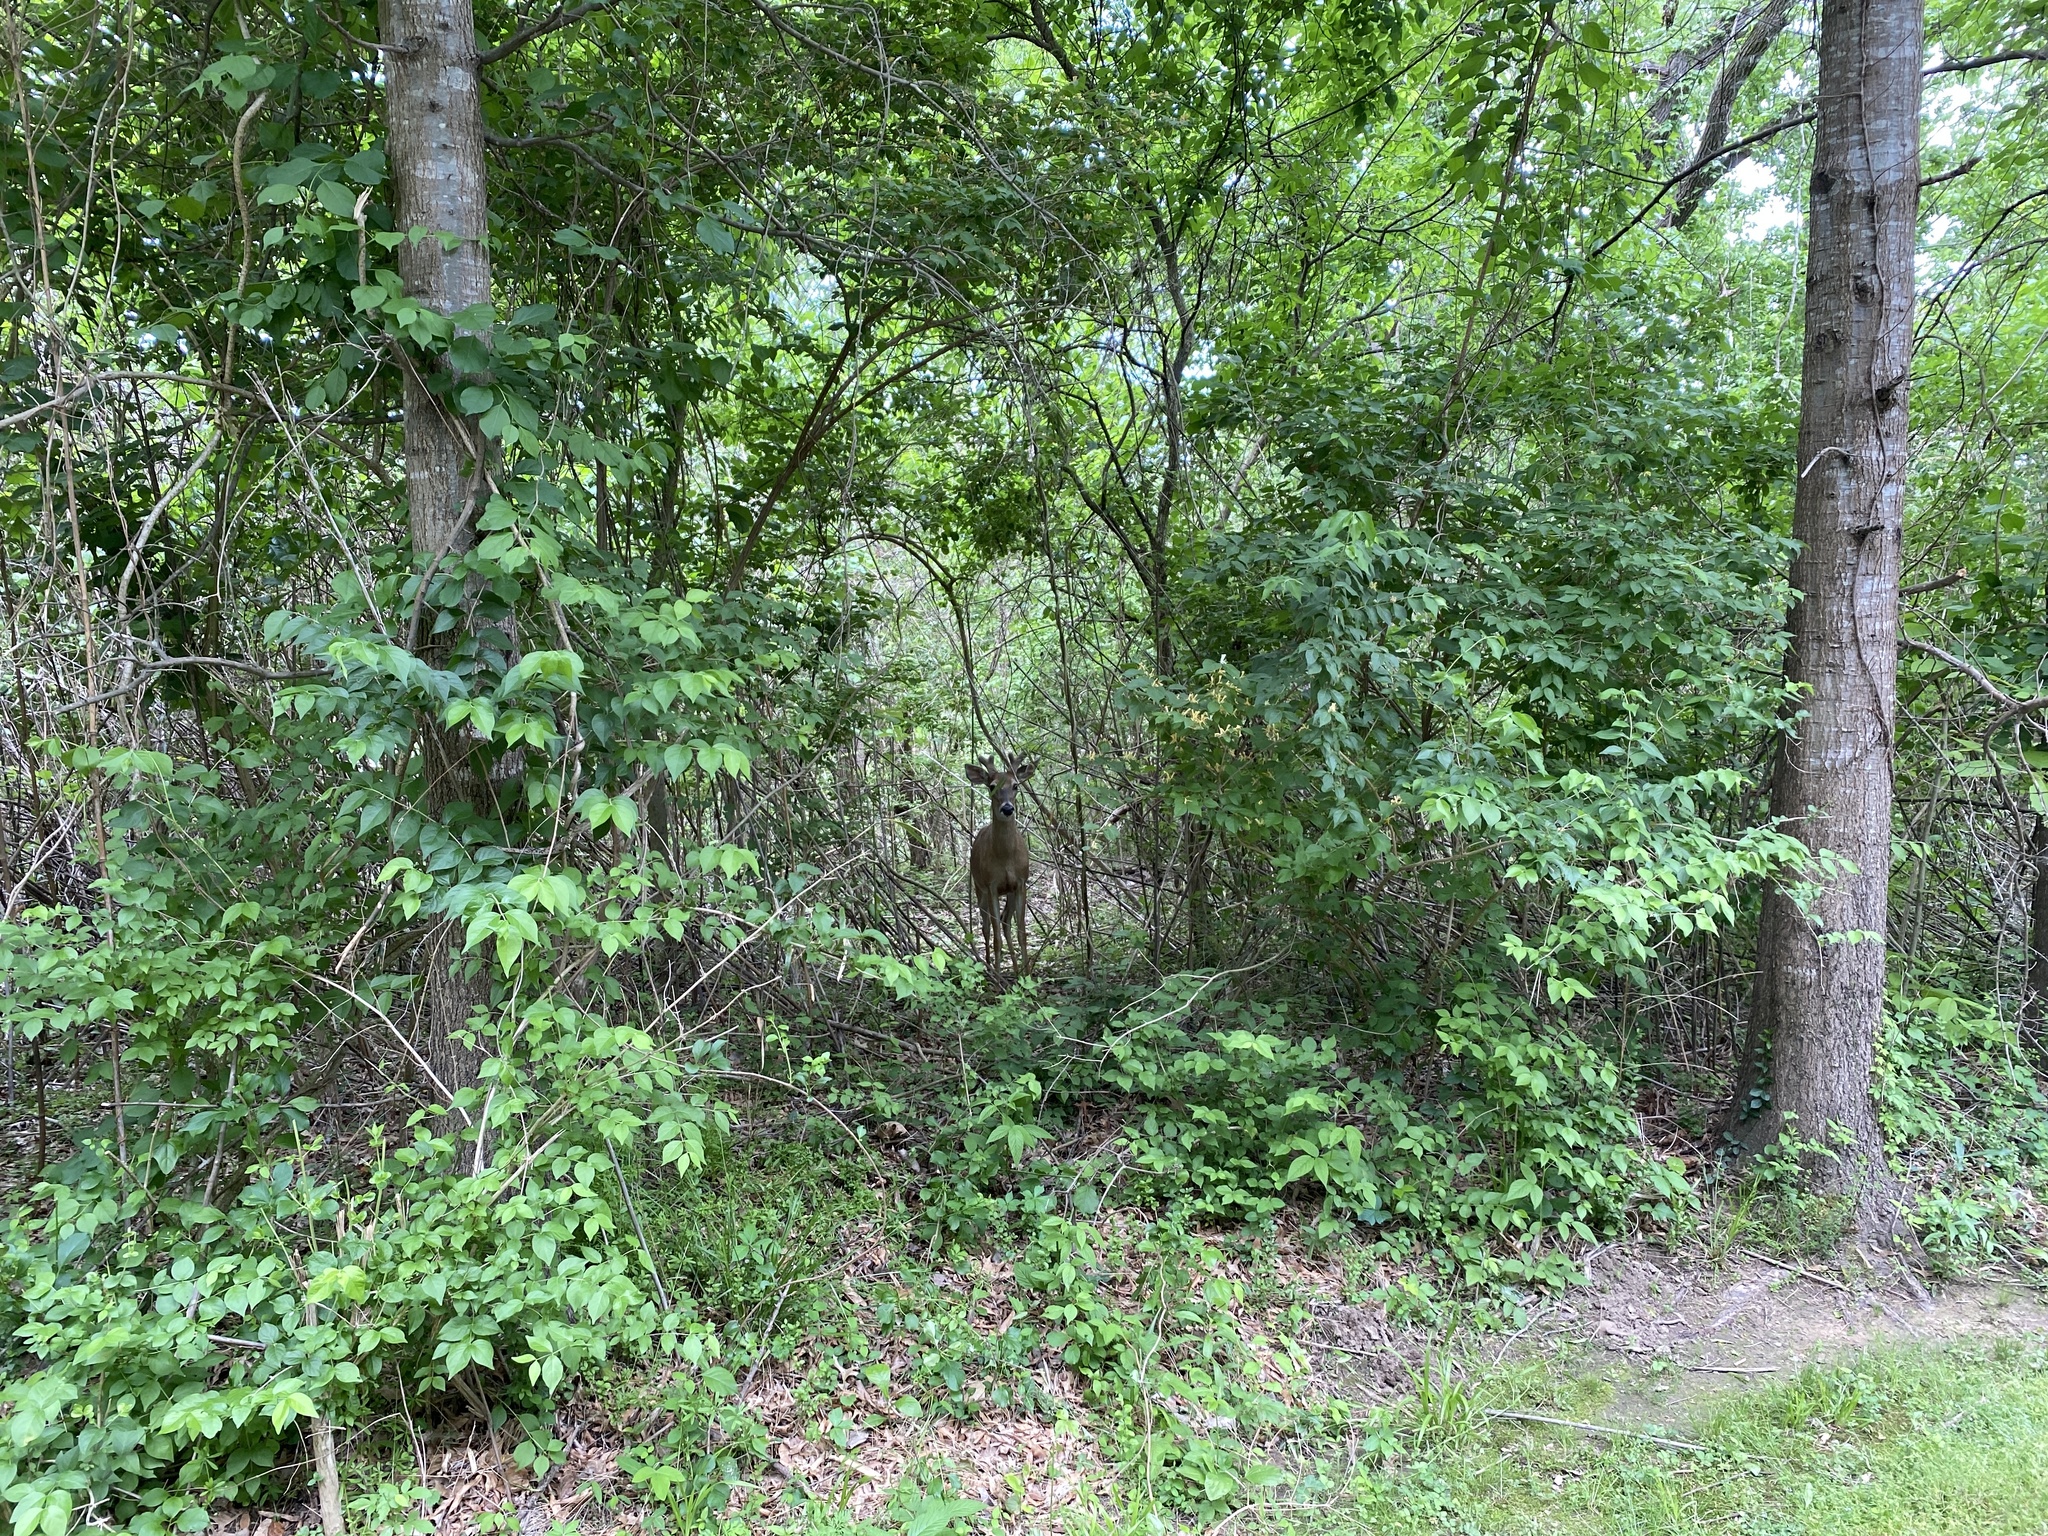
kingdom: Animalia
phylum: Chordata
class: Mammalia
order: Artiodactyla
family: Cervidae
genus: Odocoileus
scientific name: Odocoileus virginianus
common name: White-tailed deer
